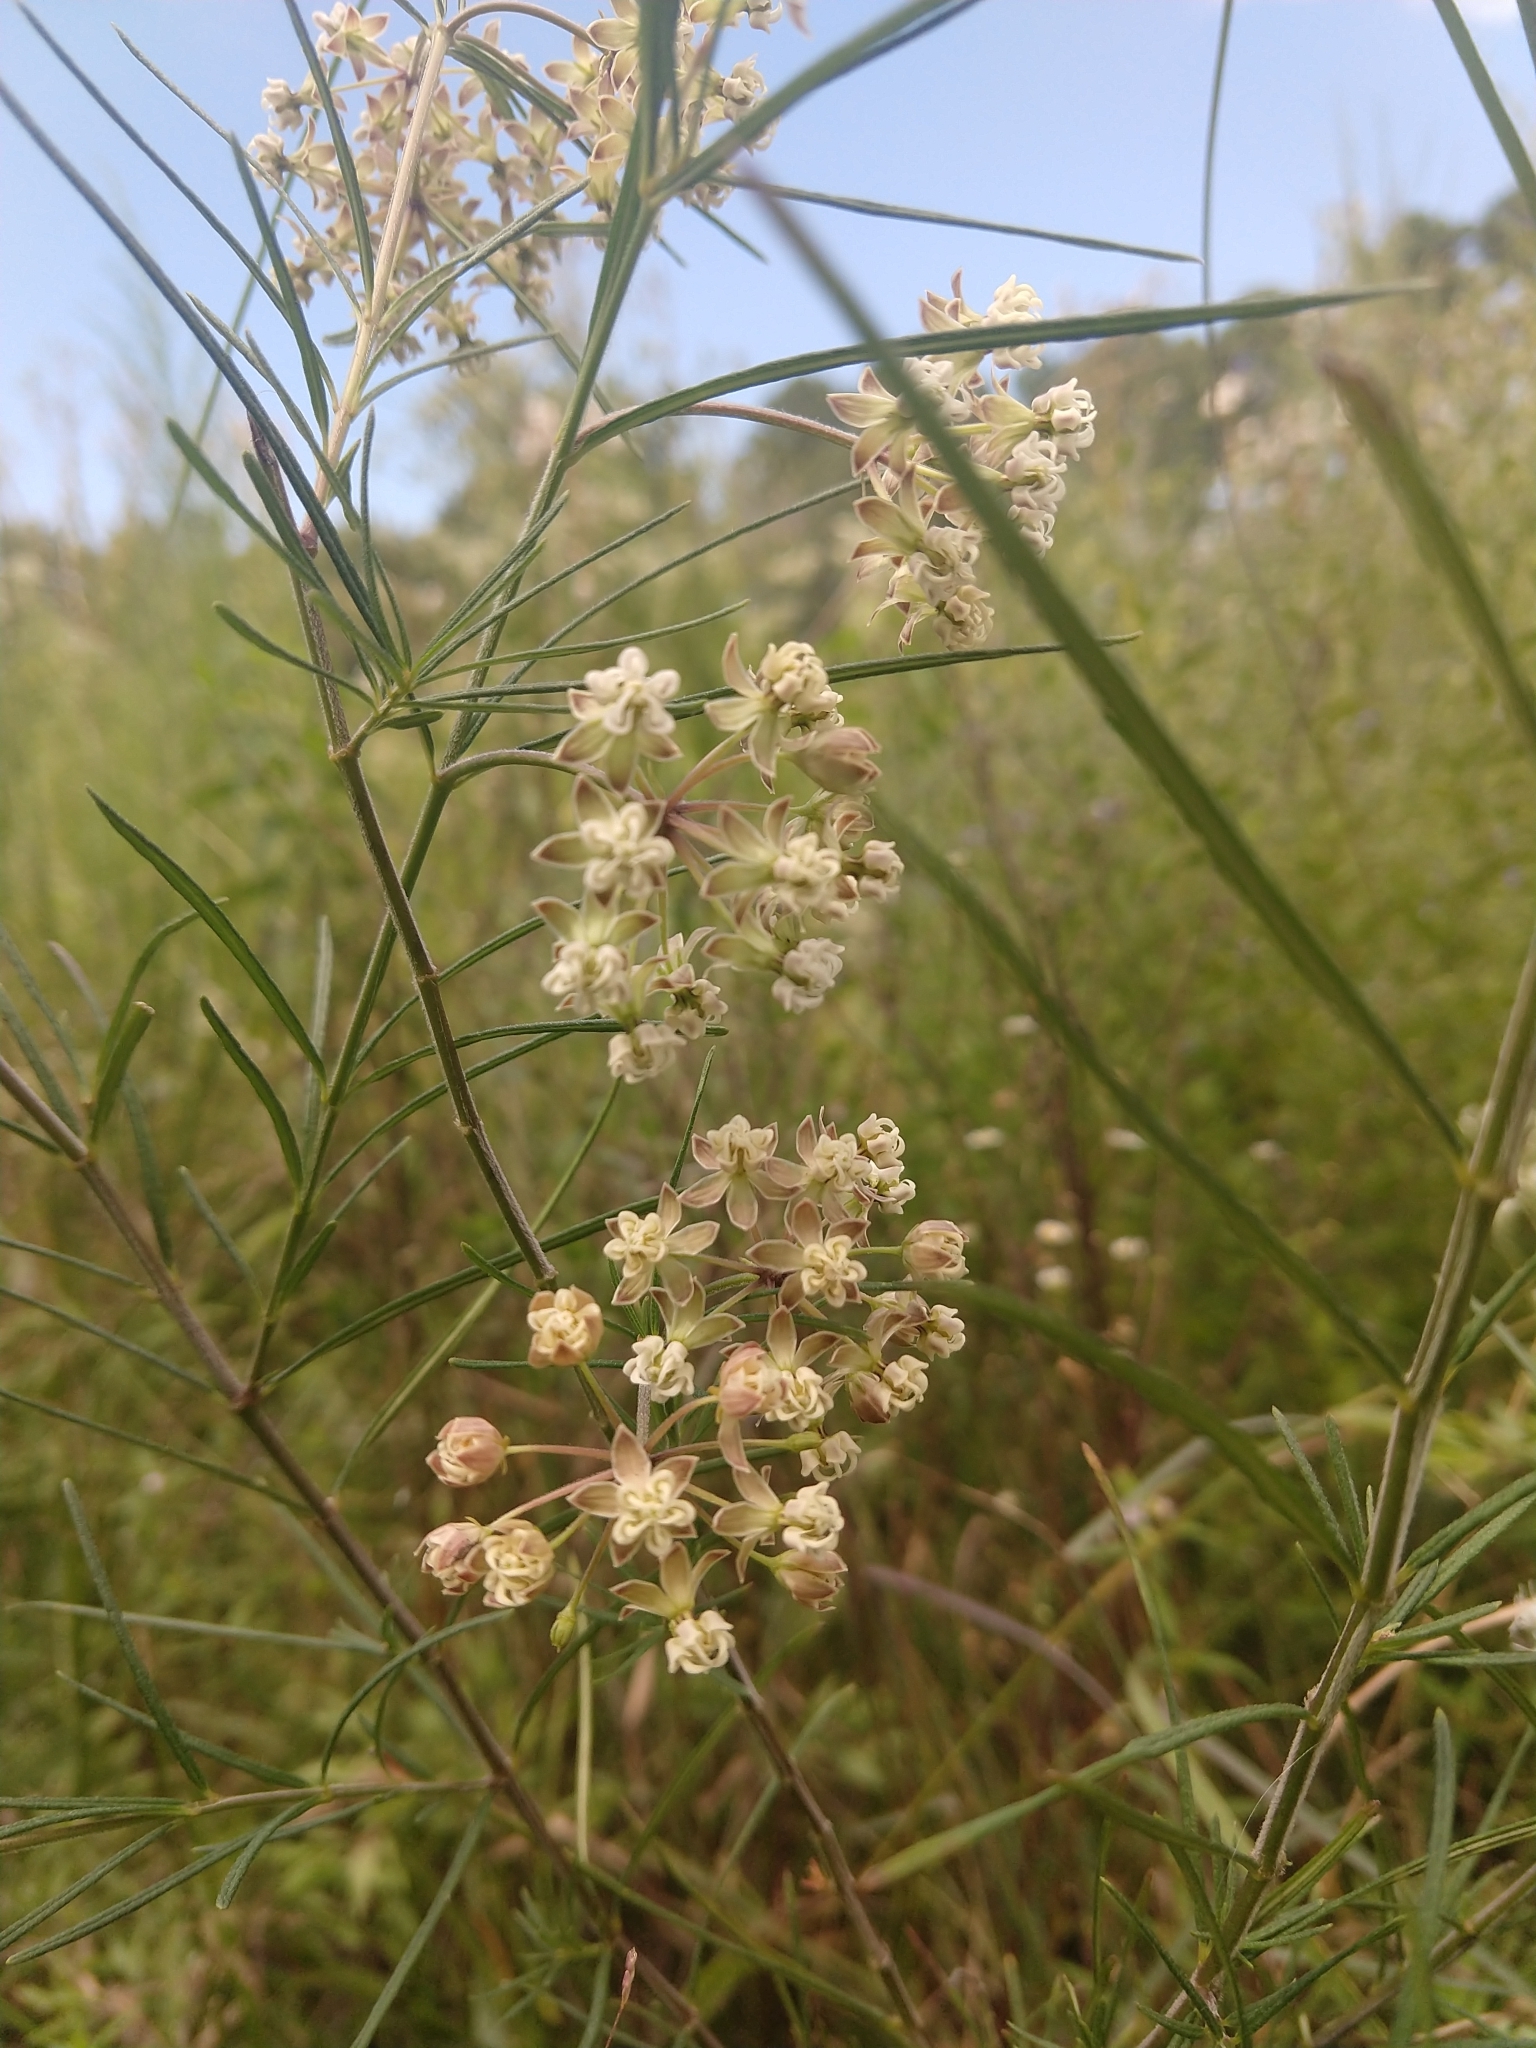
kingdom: Plantae
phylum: Tracheophyta
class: Magnoliopsida
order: Gentianales
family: Apocynaceae
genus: Asclepias
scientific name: Asclepias verticillata
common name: Eastern whorled milkweed
